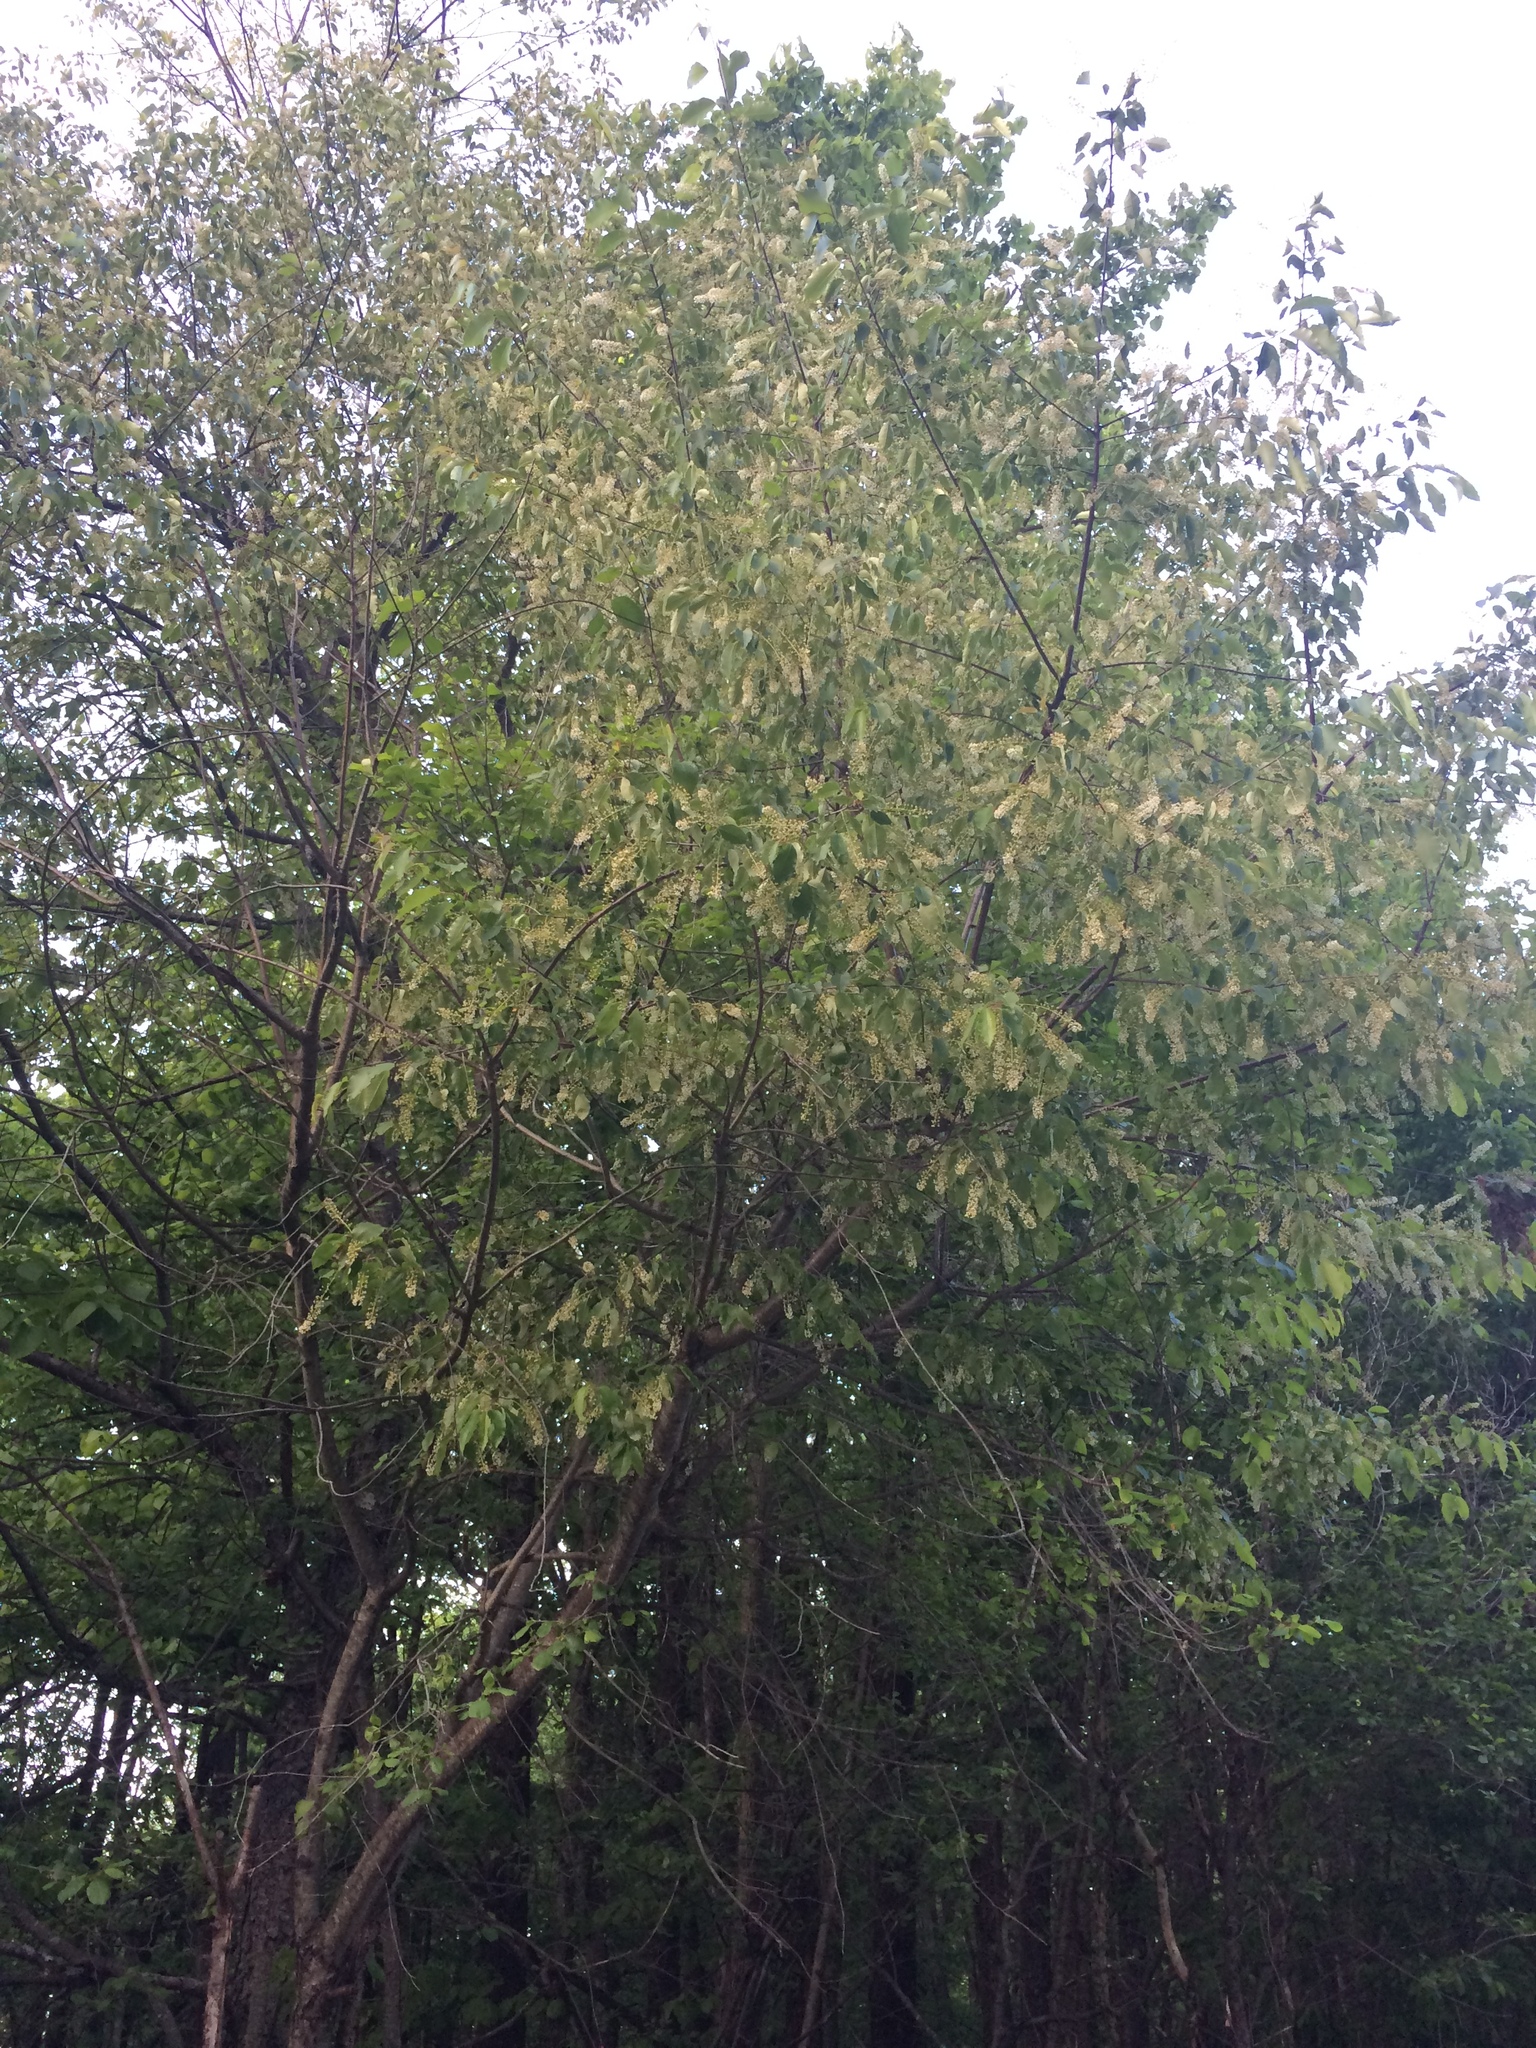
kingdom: Plantae
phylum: Tracheophyta
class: Magnoliopsida
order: Rosales
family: Rosaceae
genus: Prunus
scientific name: Prunus serotina
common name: Black cherry
